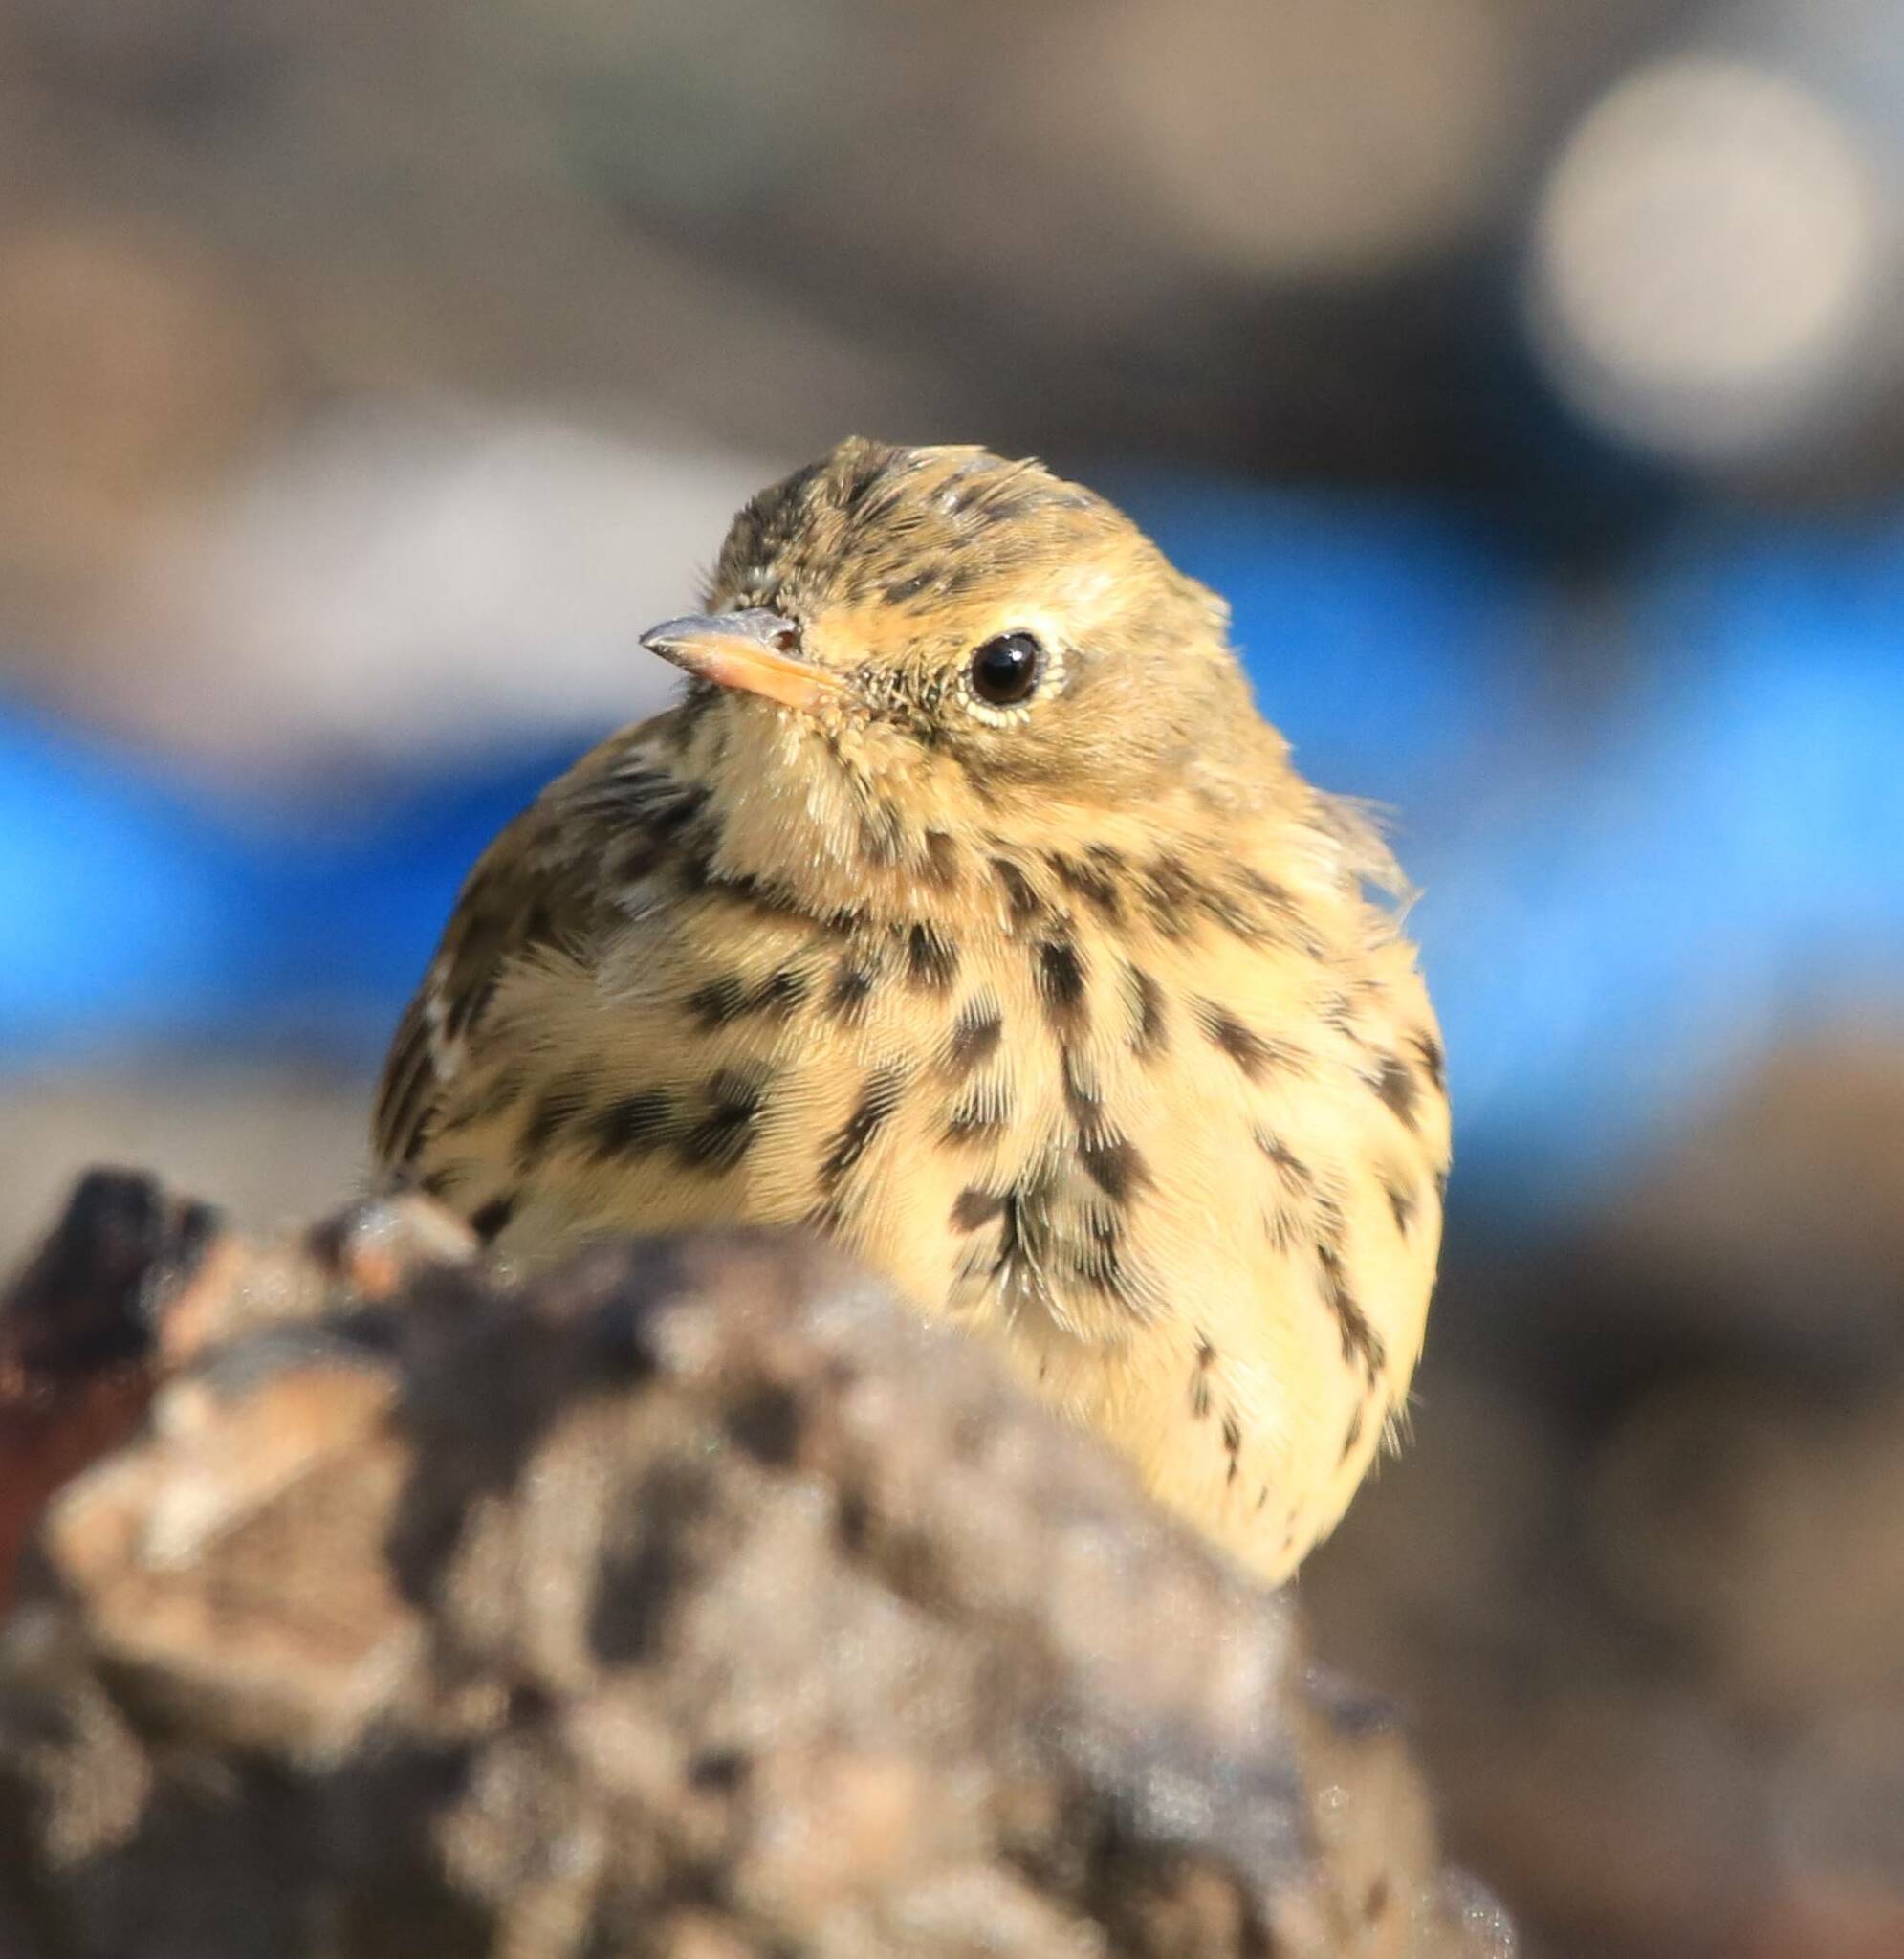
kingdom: Animalia
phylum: Chordata
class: Aves
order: Passeriformes
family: Motacillidae
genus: Anthus
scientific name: Anthus pratensis
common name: Meadow pipit
